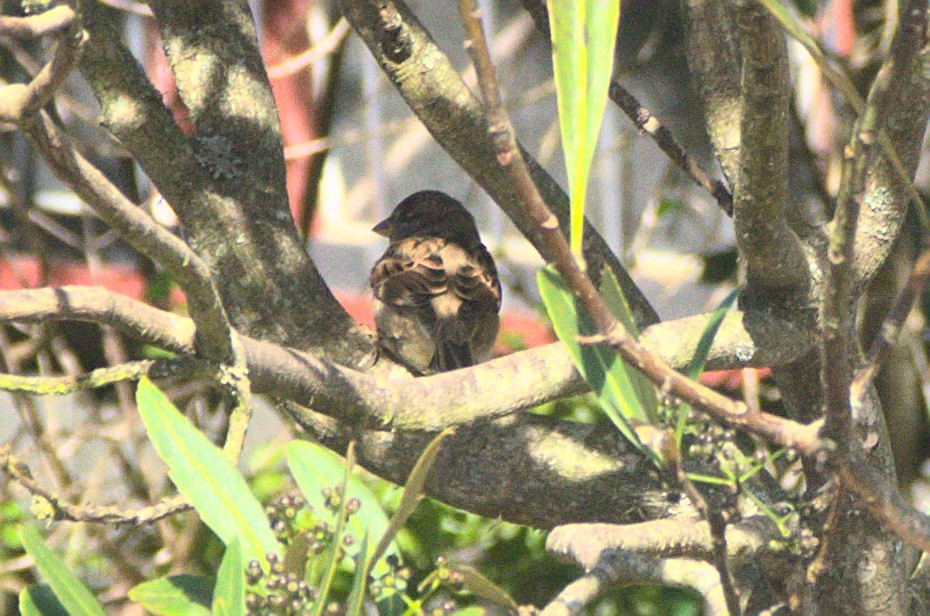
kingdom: Animalia
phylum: Chordata
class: Aves
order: Passeriformes
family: Passeridae
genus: Passer
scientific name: Passer domesticus
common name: House sparrow
